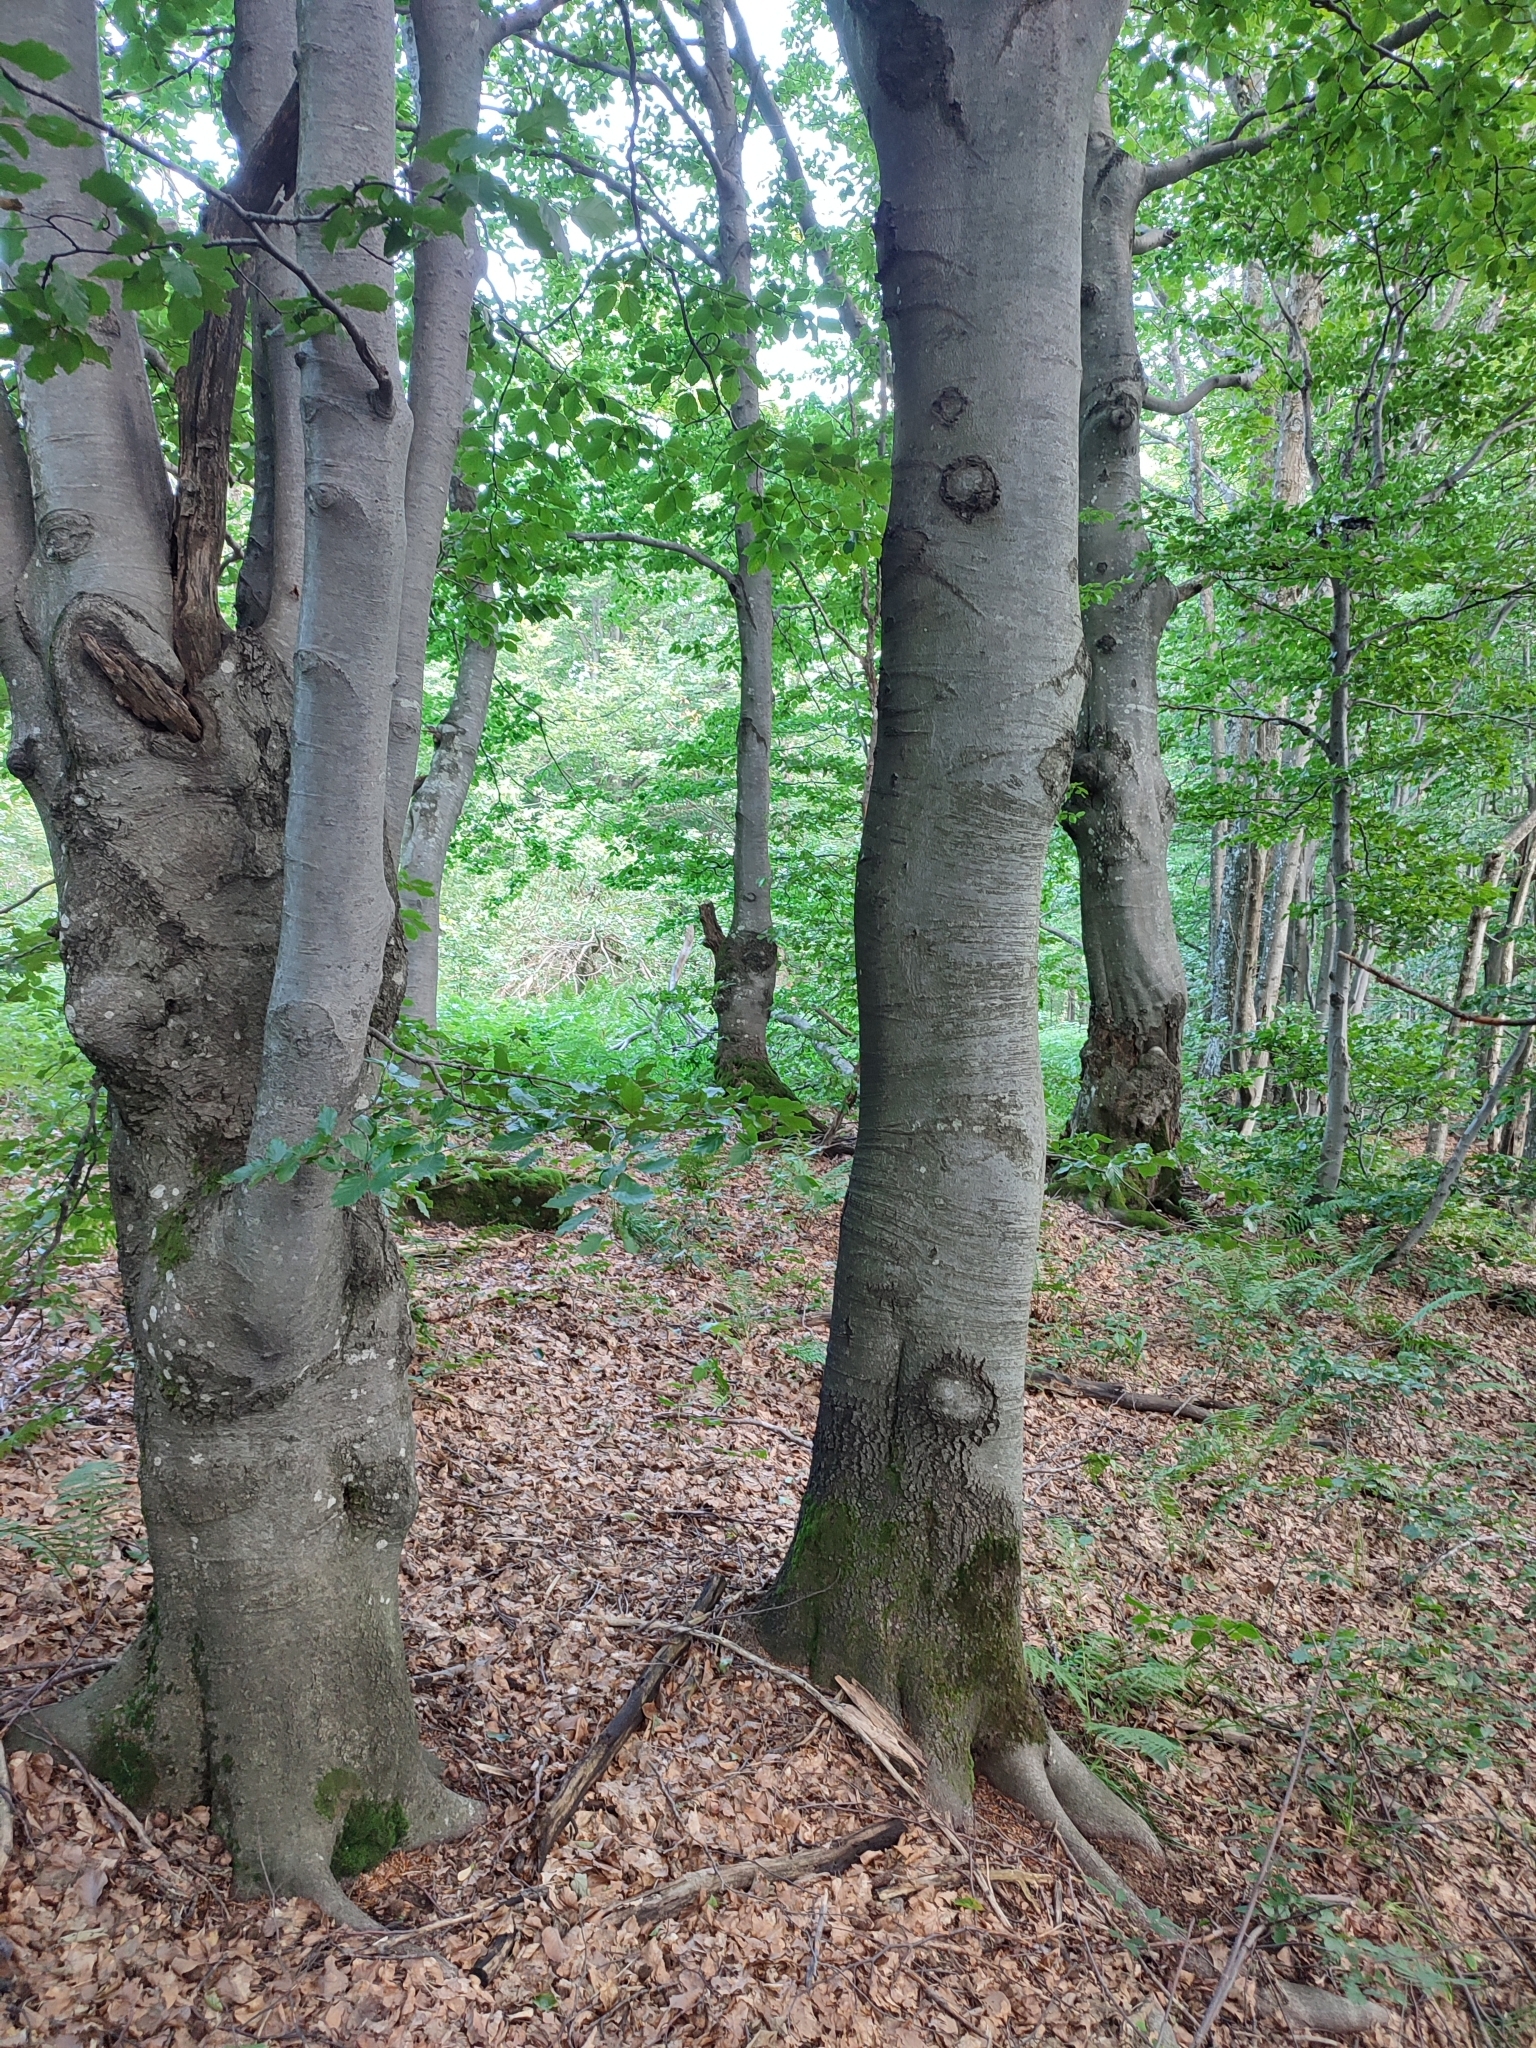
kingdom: Plantae
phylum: Tracheophyta
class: Magnoliopsida
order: Fagales
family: Fagaceae
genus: Fagus
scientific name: Fagus sylvatica
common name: Beech
